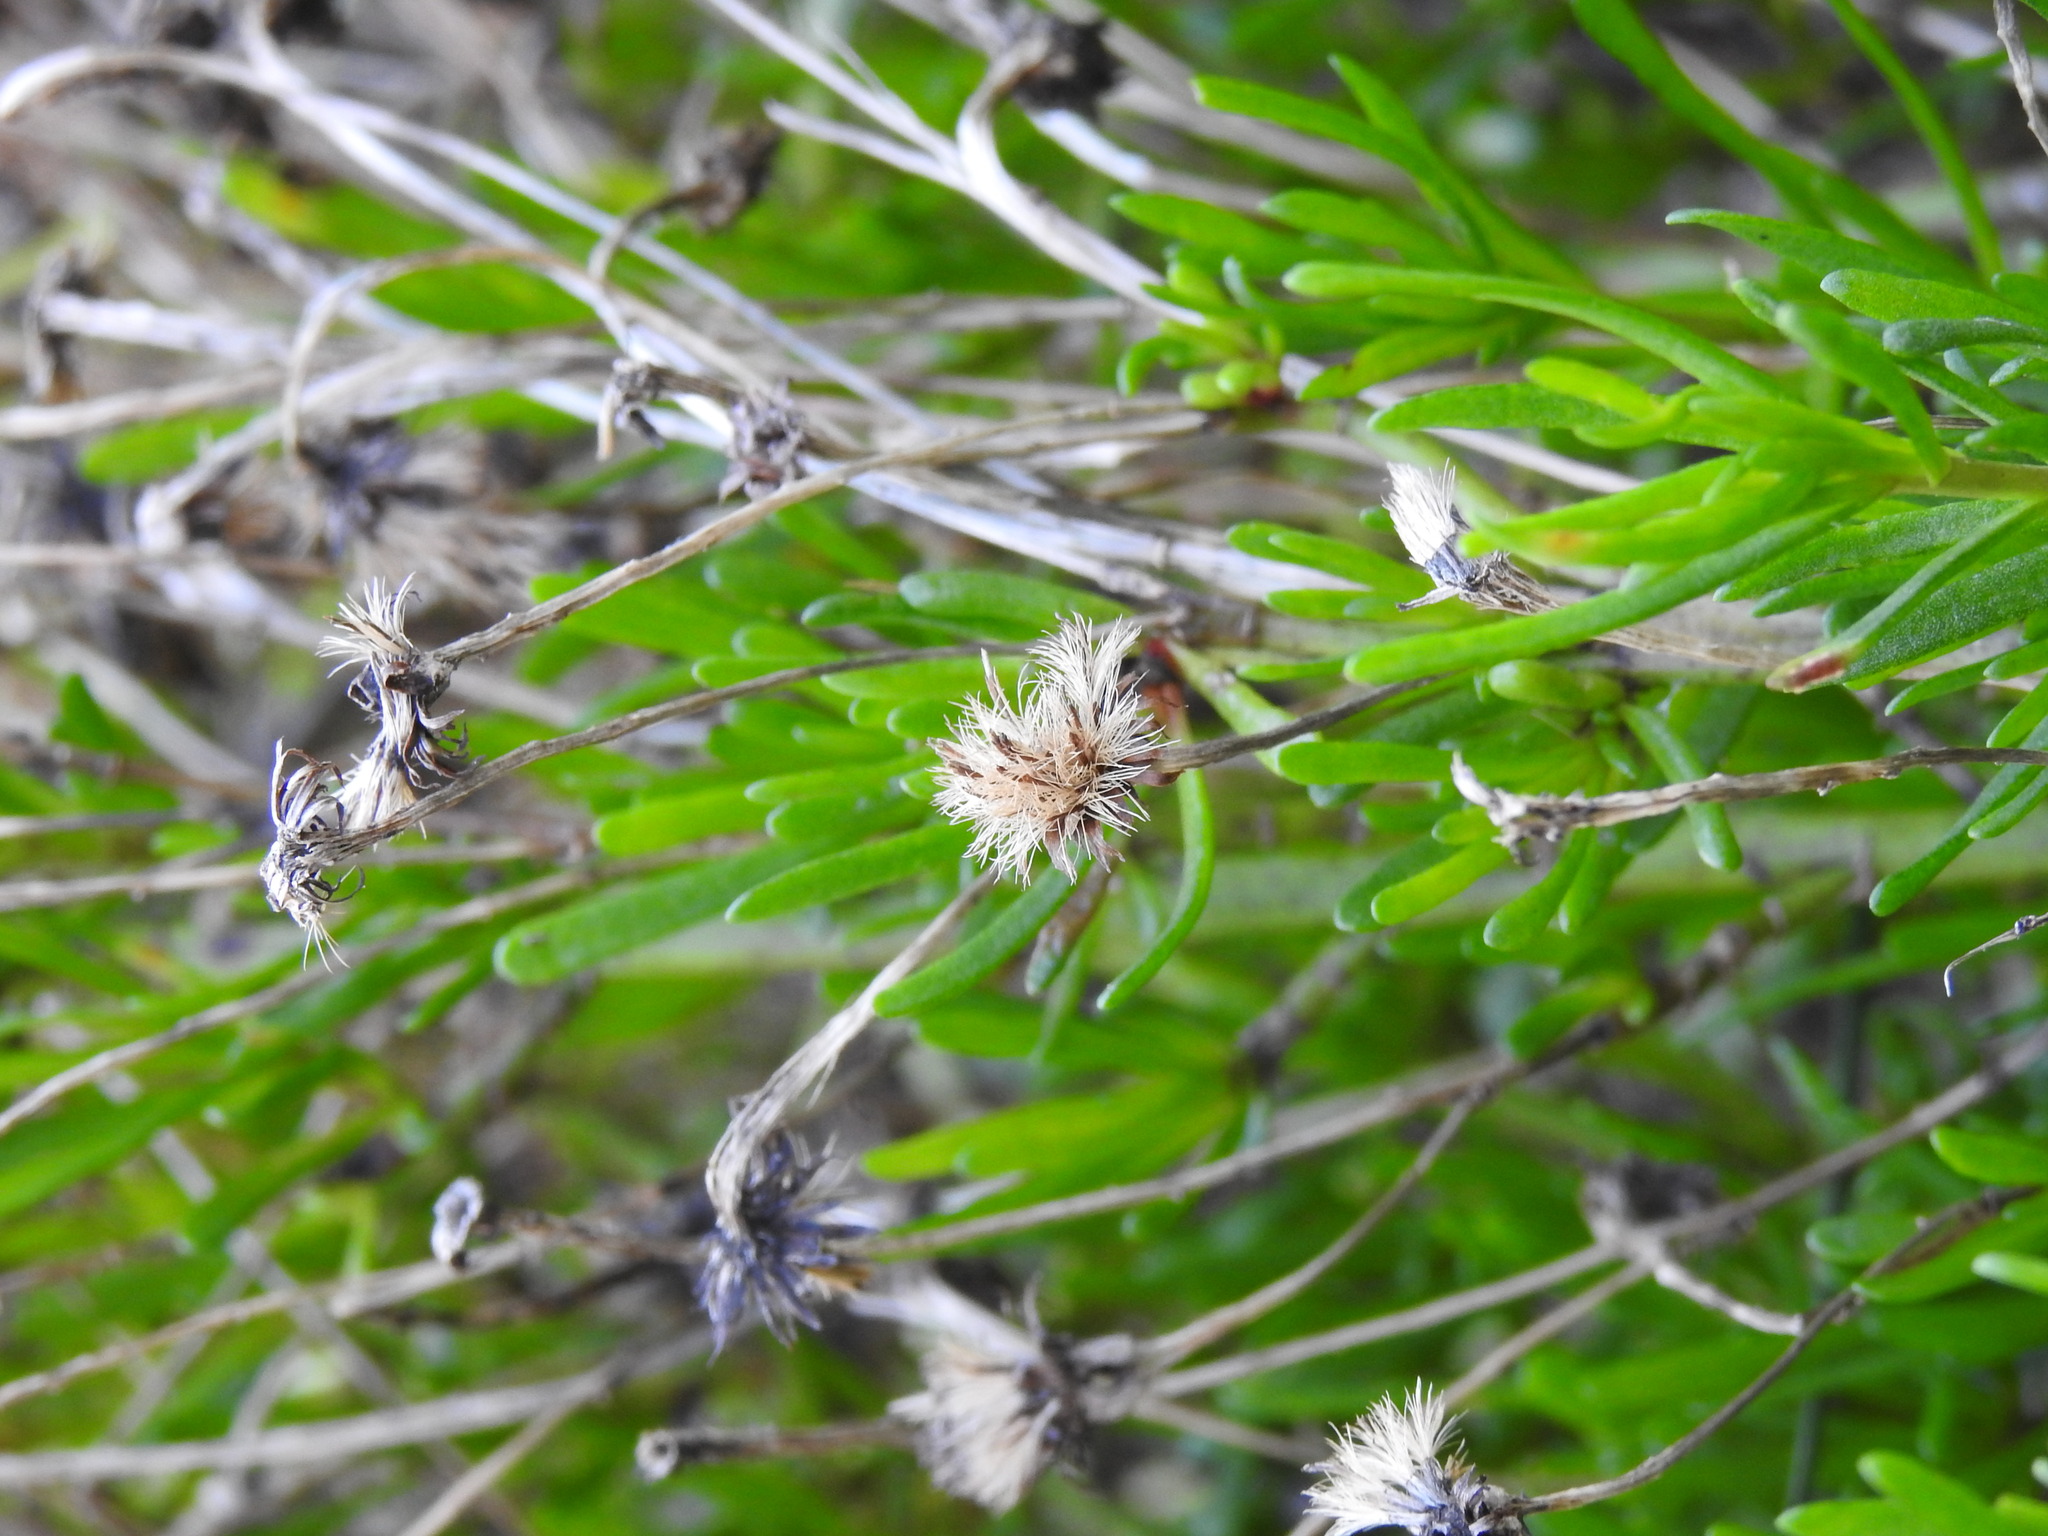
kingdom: Plantae
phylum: Tracheophyta
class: Magnoliopsida
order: Asterales
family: Asteraceae
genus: Limbarda
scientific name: Limbarda crithmoides
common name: Golden samphire
